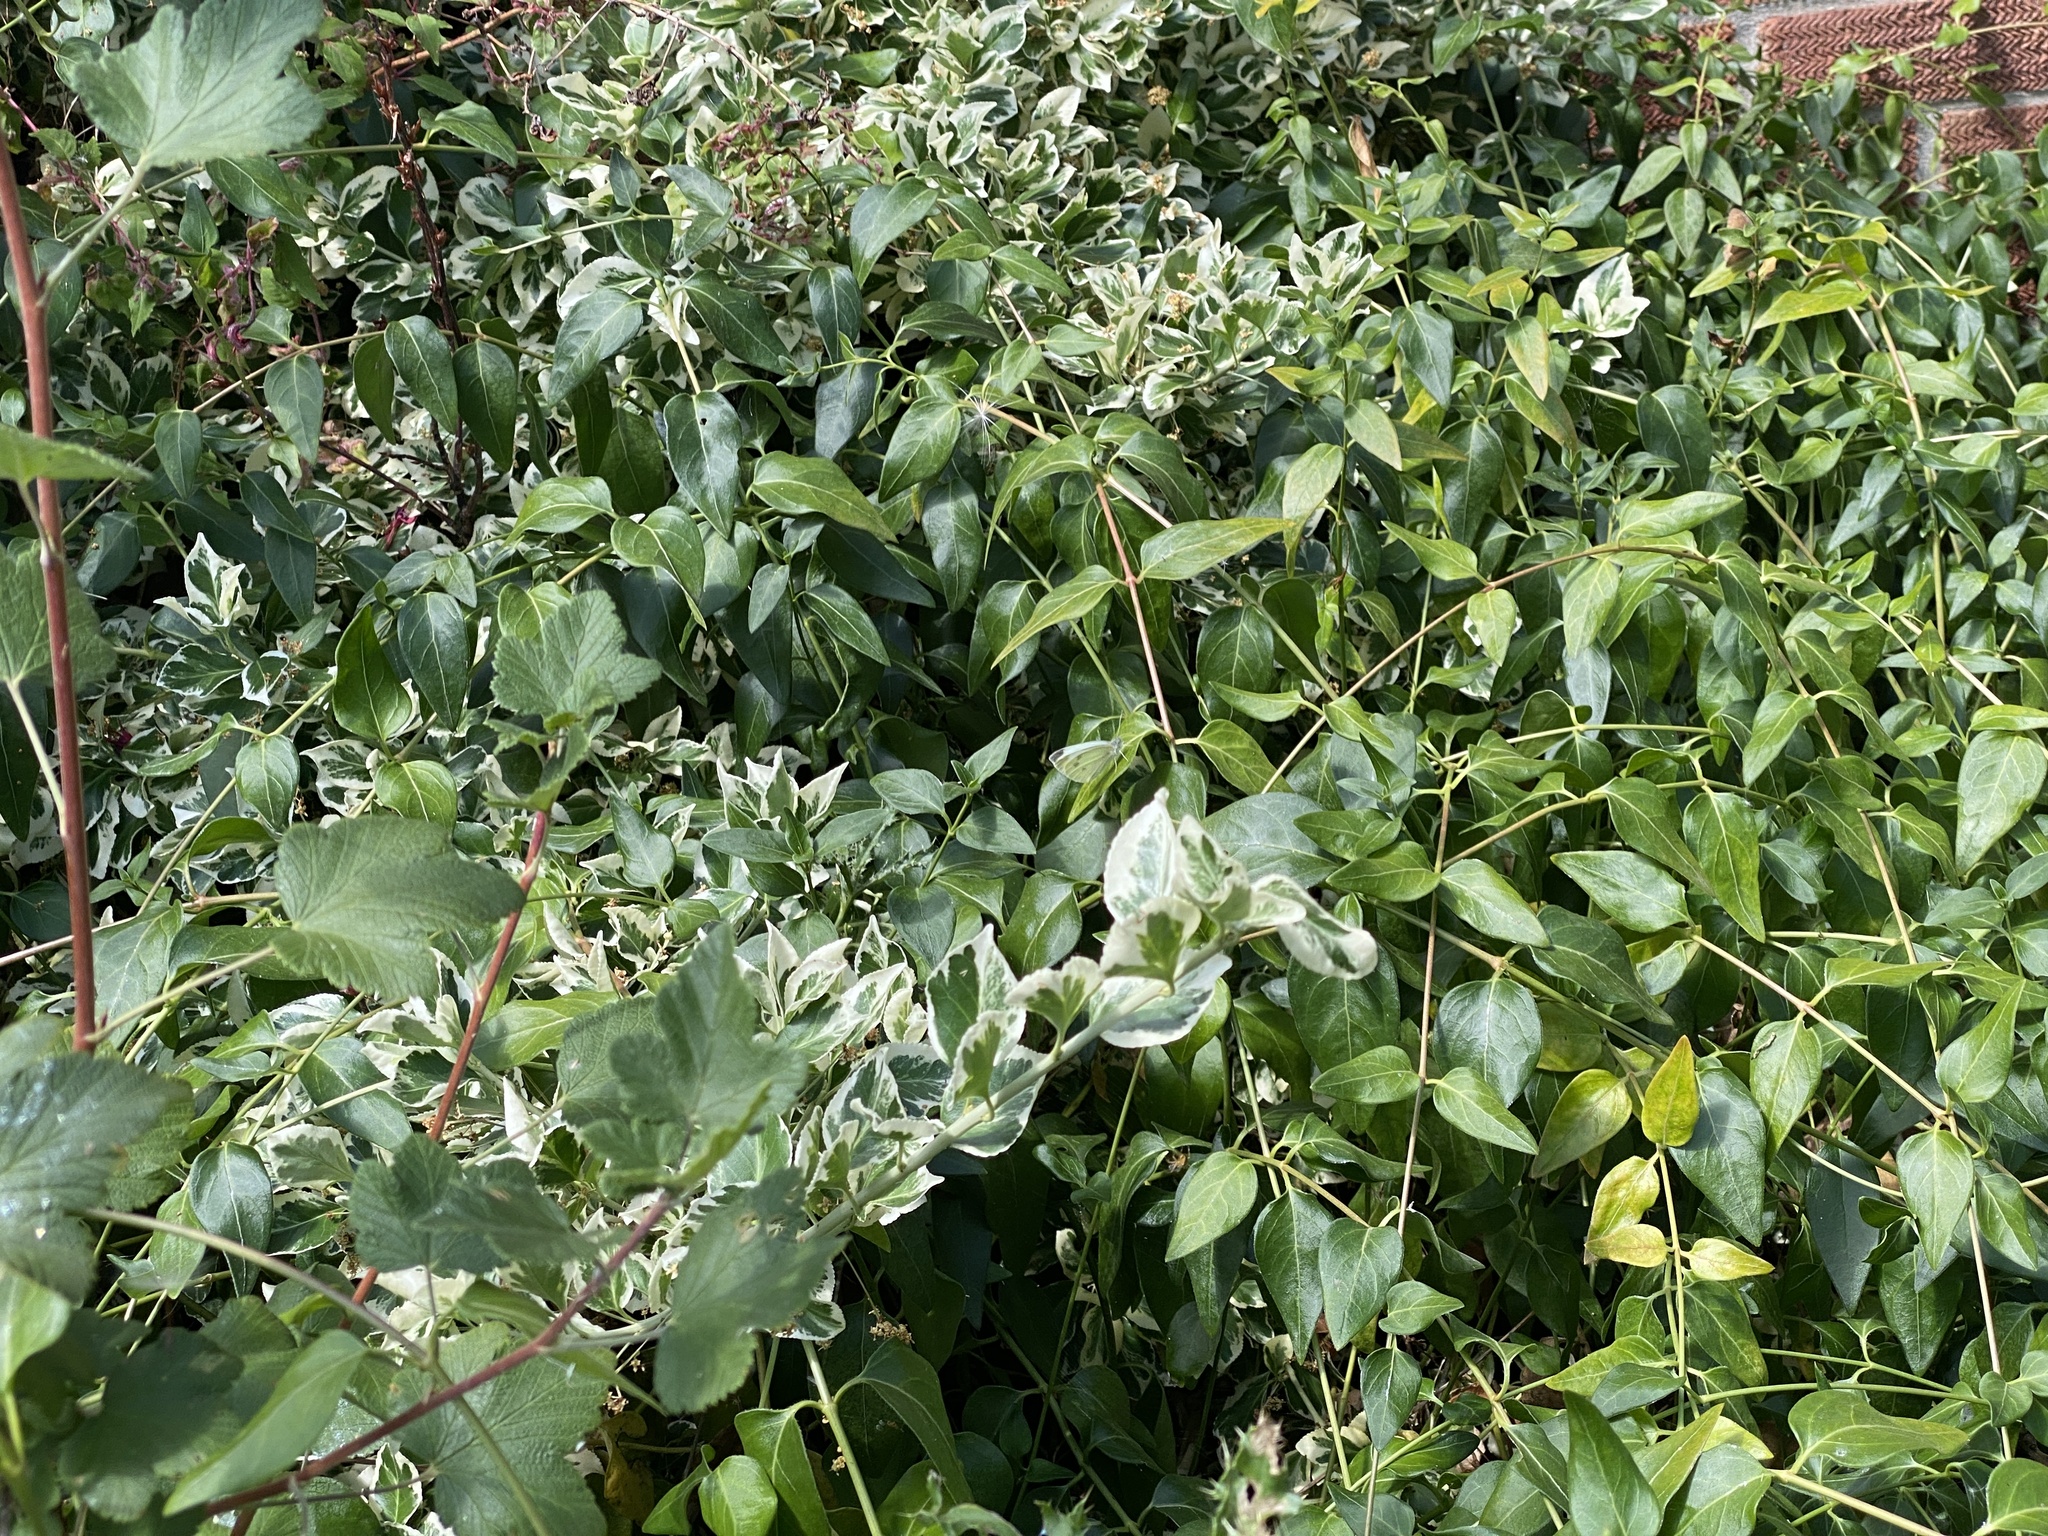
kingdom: Animalia
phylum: Arthropoda
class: Insecta
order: Lepidoptera
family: Pieridae
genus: Pieris
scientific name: Pieris rapae
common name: Small white
